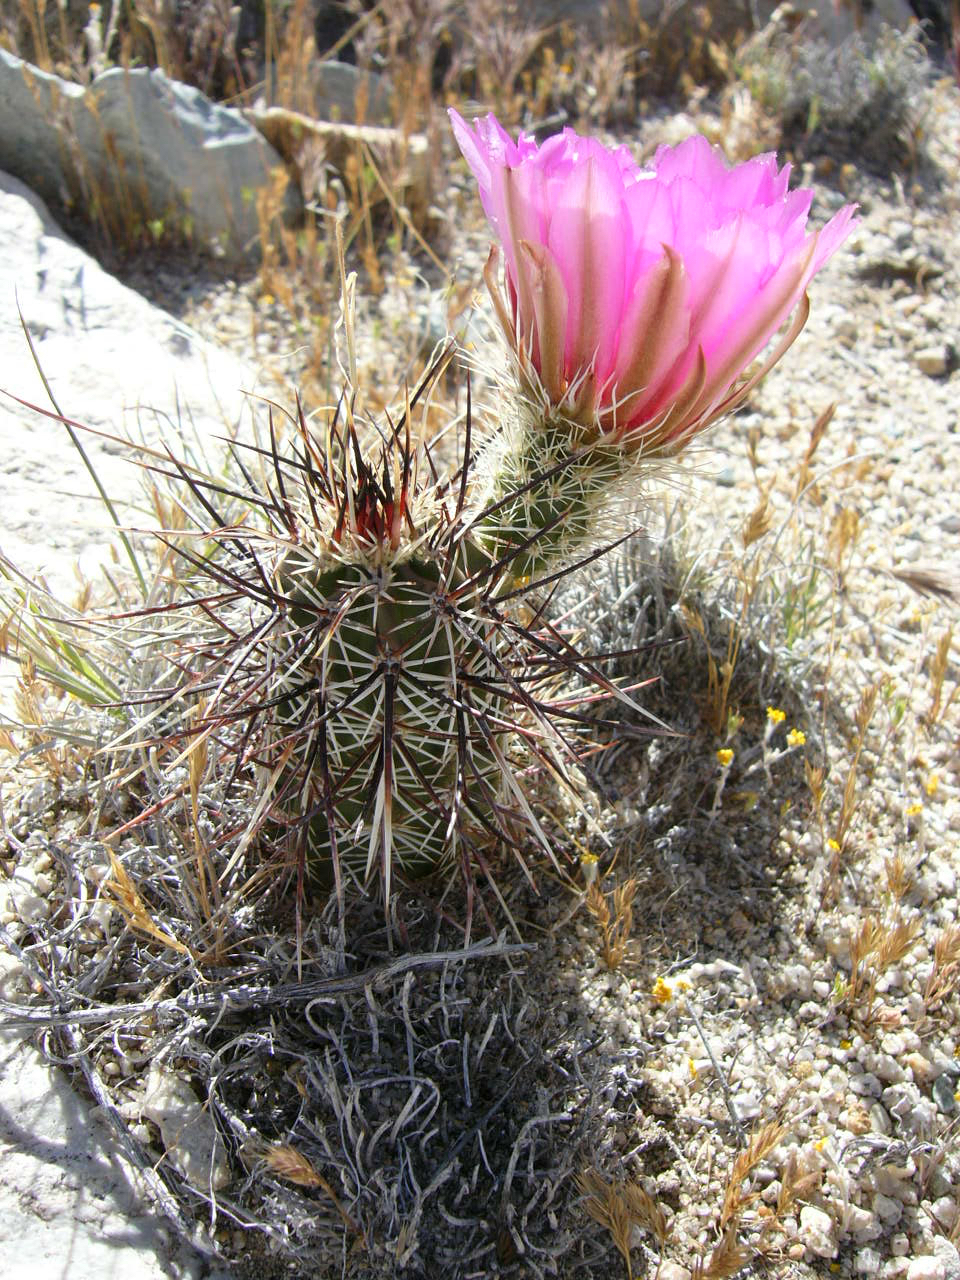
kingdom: Plantae
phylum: Tracheophyta
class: Magnoliopsida
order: Caryophyllales
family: Cactaceae
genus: Echinocereus
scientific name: Echinocereus engelmannii
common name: Engelmann's hedgehog cactus
